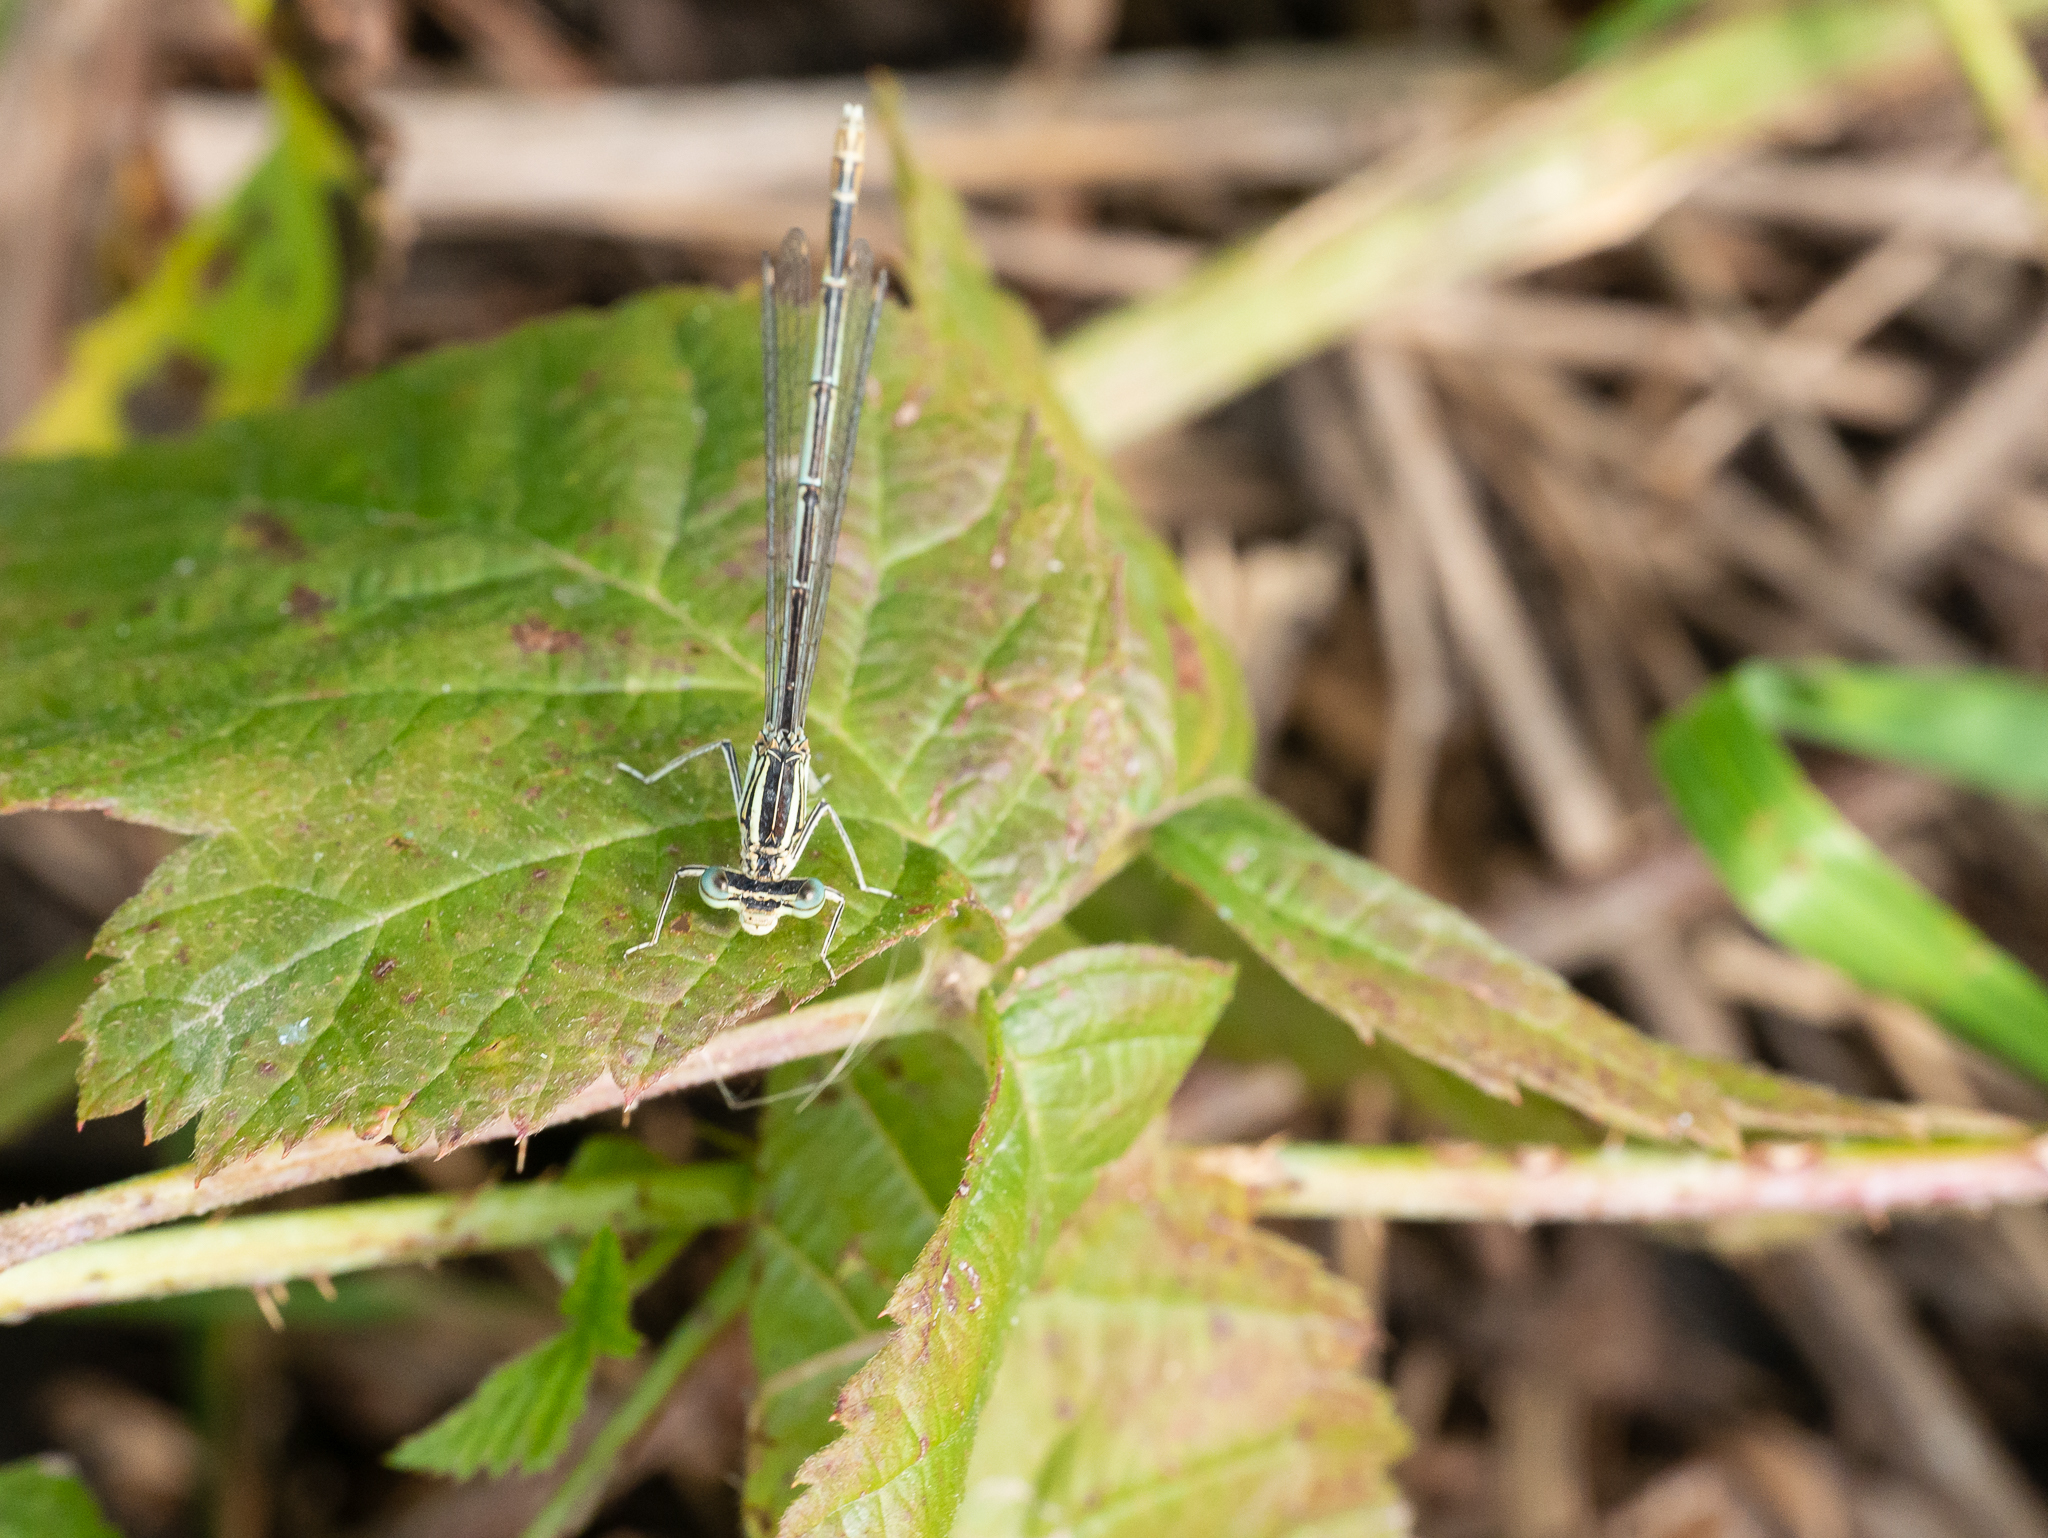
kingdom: Animalia
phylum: Arthropoda
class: Insecta
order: Odonata
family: Platycnemididae
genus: Platycnemis
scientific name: Platycnemis pennipes
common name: White-legged damselfly
